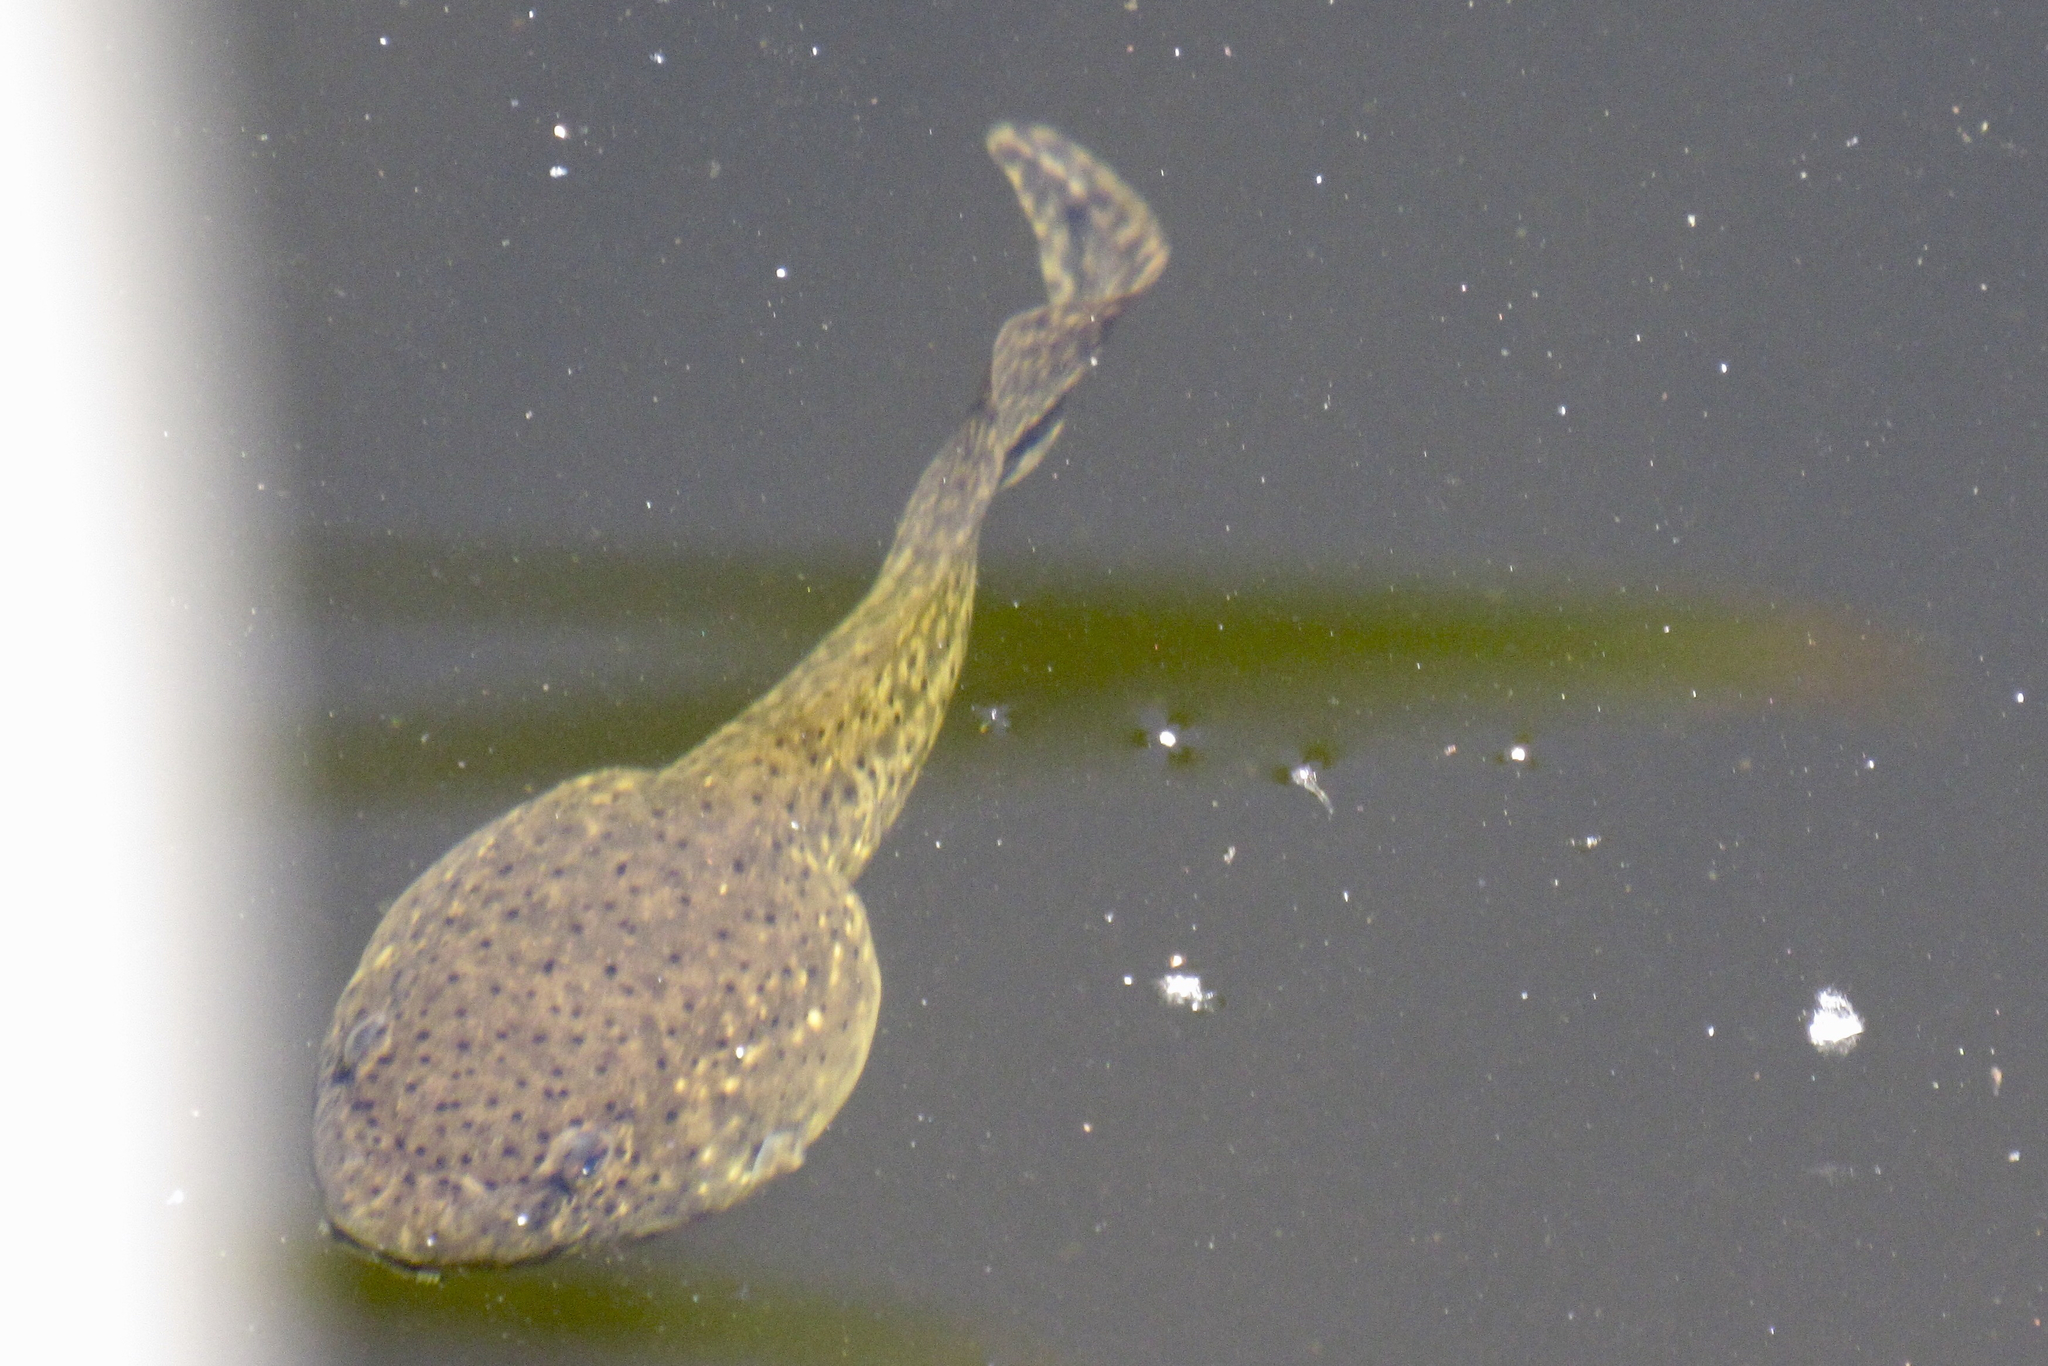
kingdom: Animalia
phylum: Chordata
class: Amphibia
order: Anura
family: Ranidae
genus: Lithobates
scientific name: Lithobates catesbeianus
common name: American bullfrog
